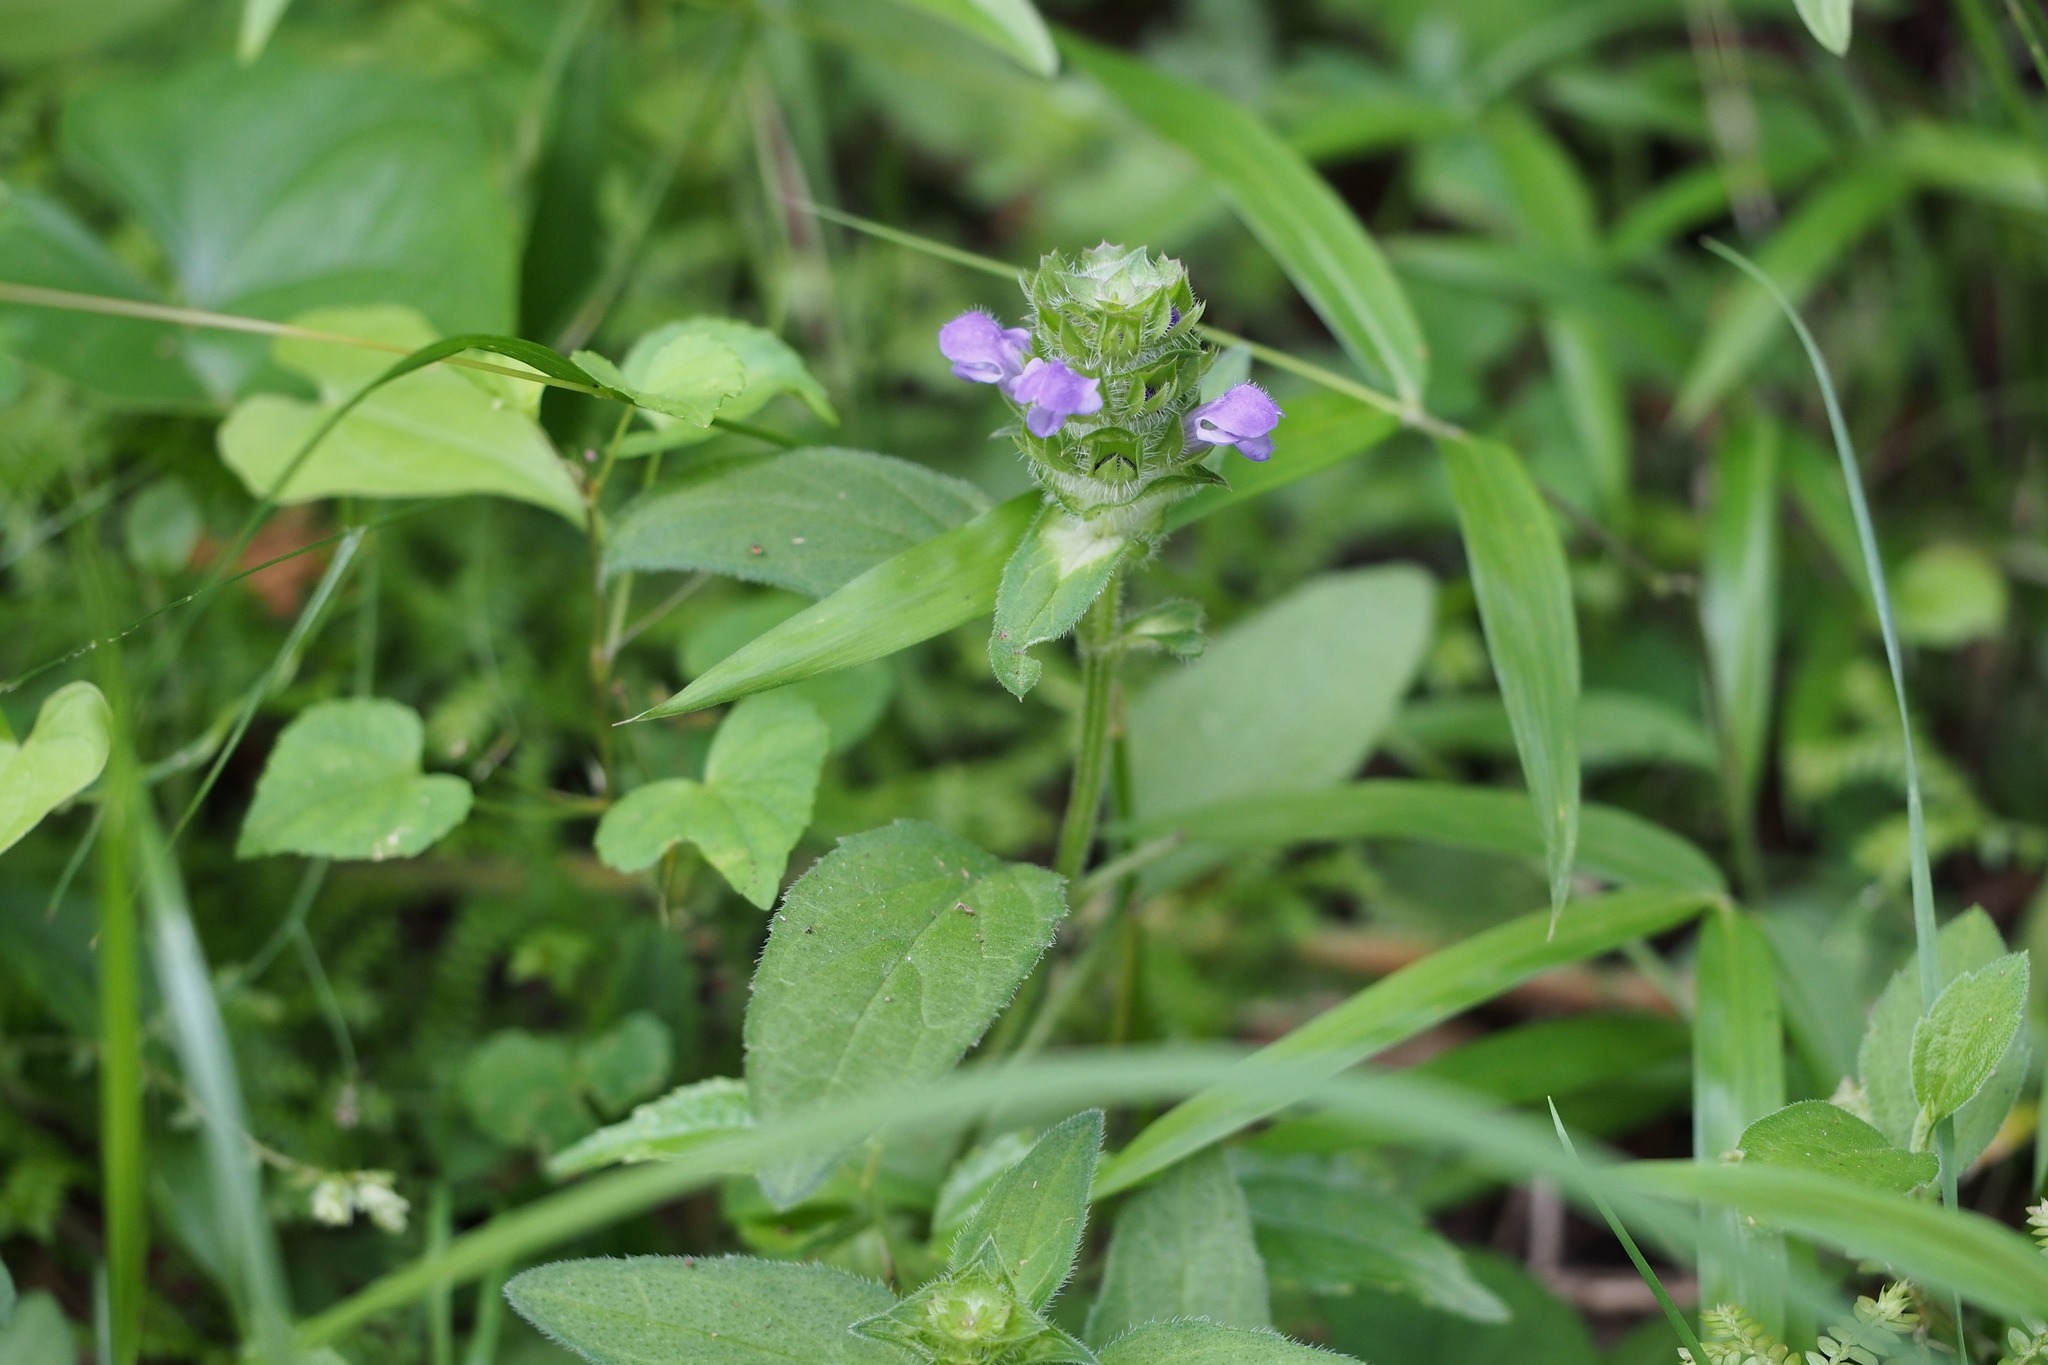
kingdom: Plantae
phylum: Tracheophyta
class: Magnoliopsida
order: Lamiales
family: Lamiaceae
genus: Prunella
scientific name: Prunella vulgaris
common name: Heal-all
